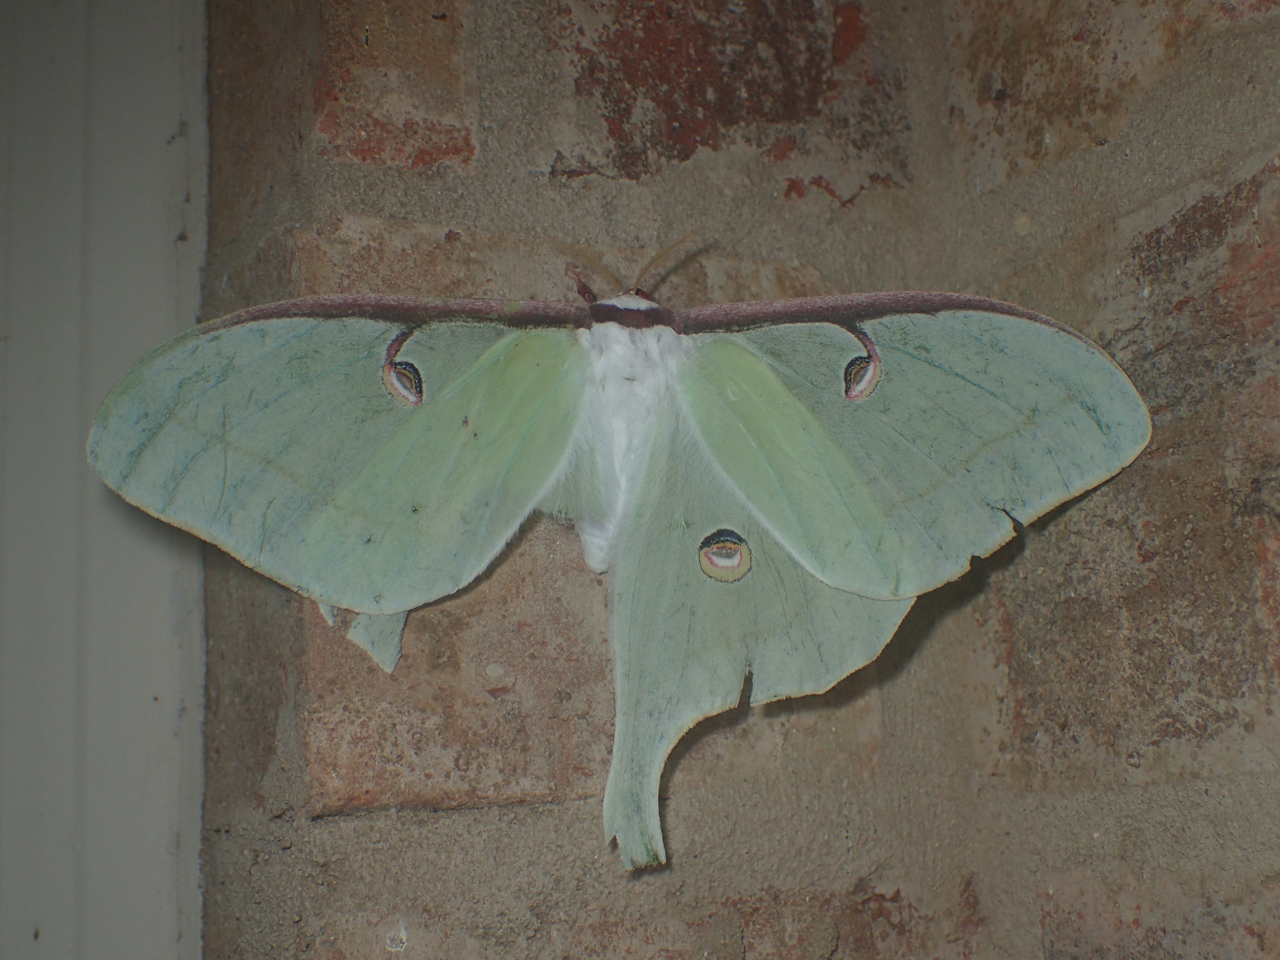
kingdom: Animalia
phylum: Arthropoda
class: Insecta
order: Lepidoptera
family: Saturniidae
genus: Actias
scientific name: Actias luna
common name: Luna moth
